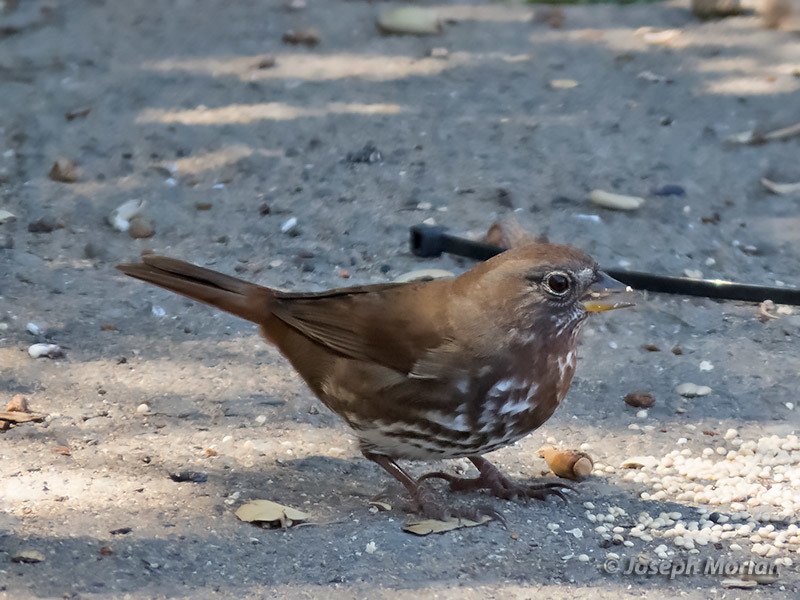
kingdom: Animalia
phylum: Chordata
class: Aves
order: Passeriformes
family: Passerellidae
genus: Passerella
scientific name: Passerella iliaca
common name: Fox sparrow
